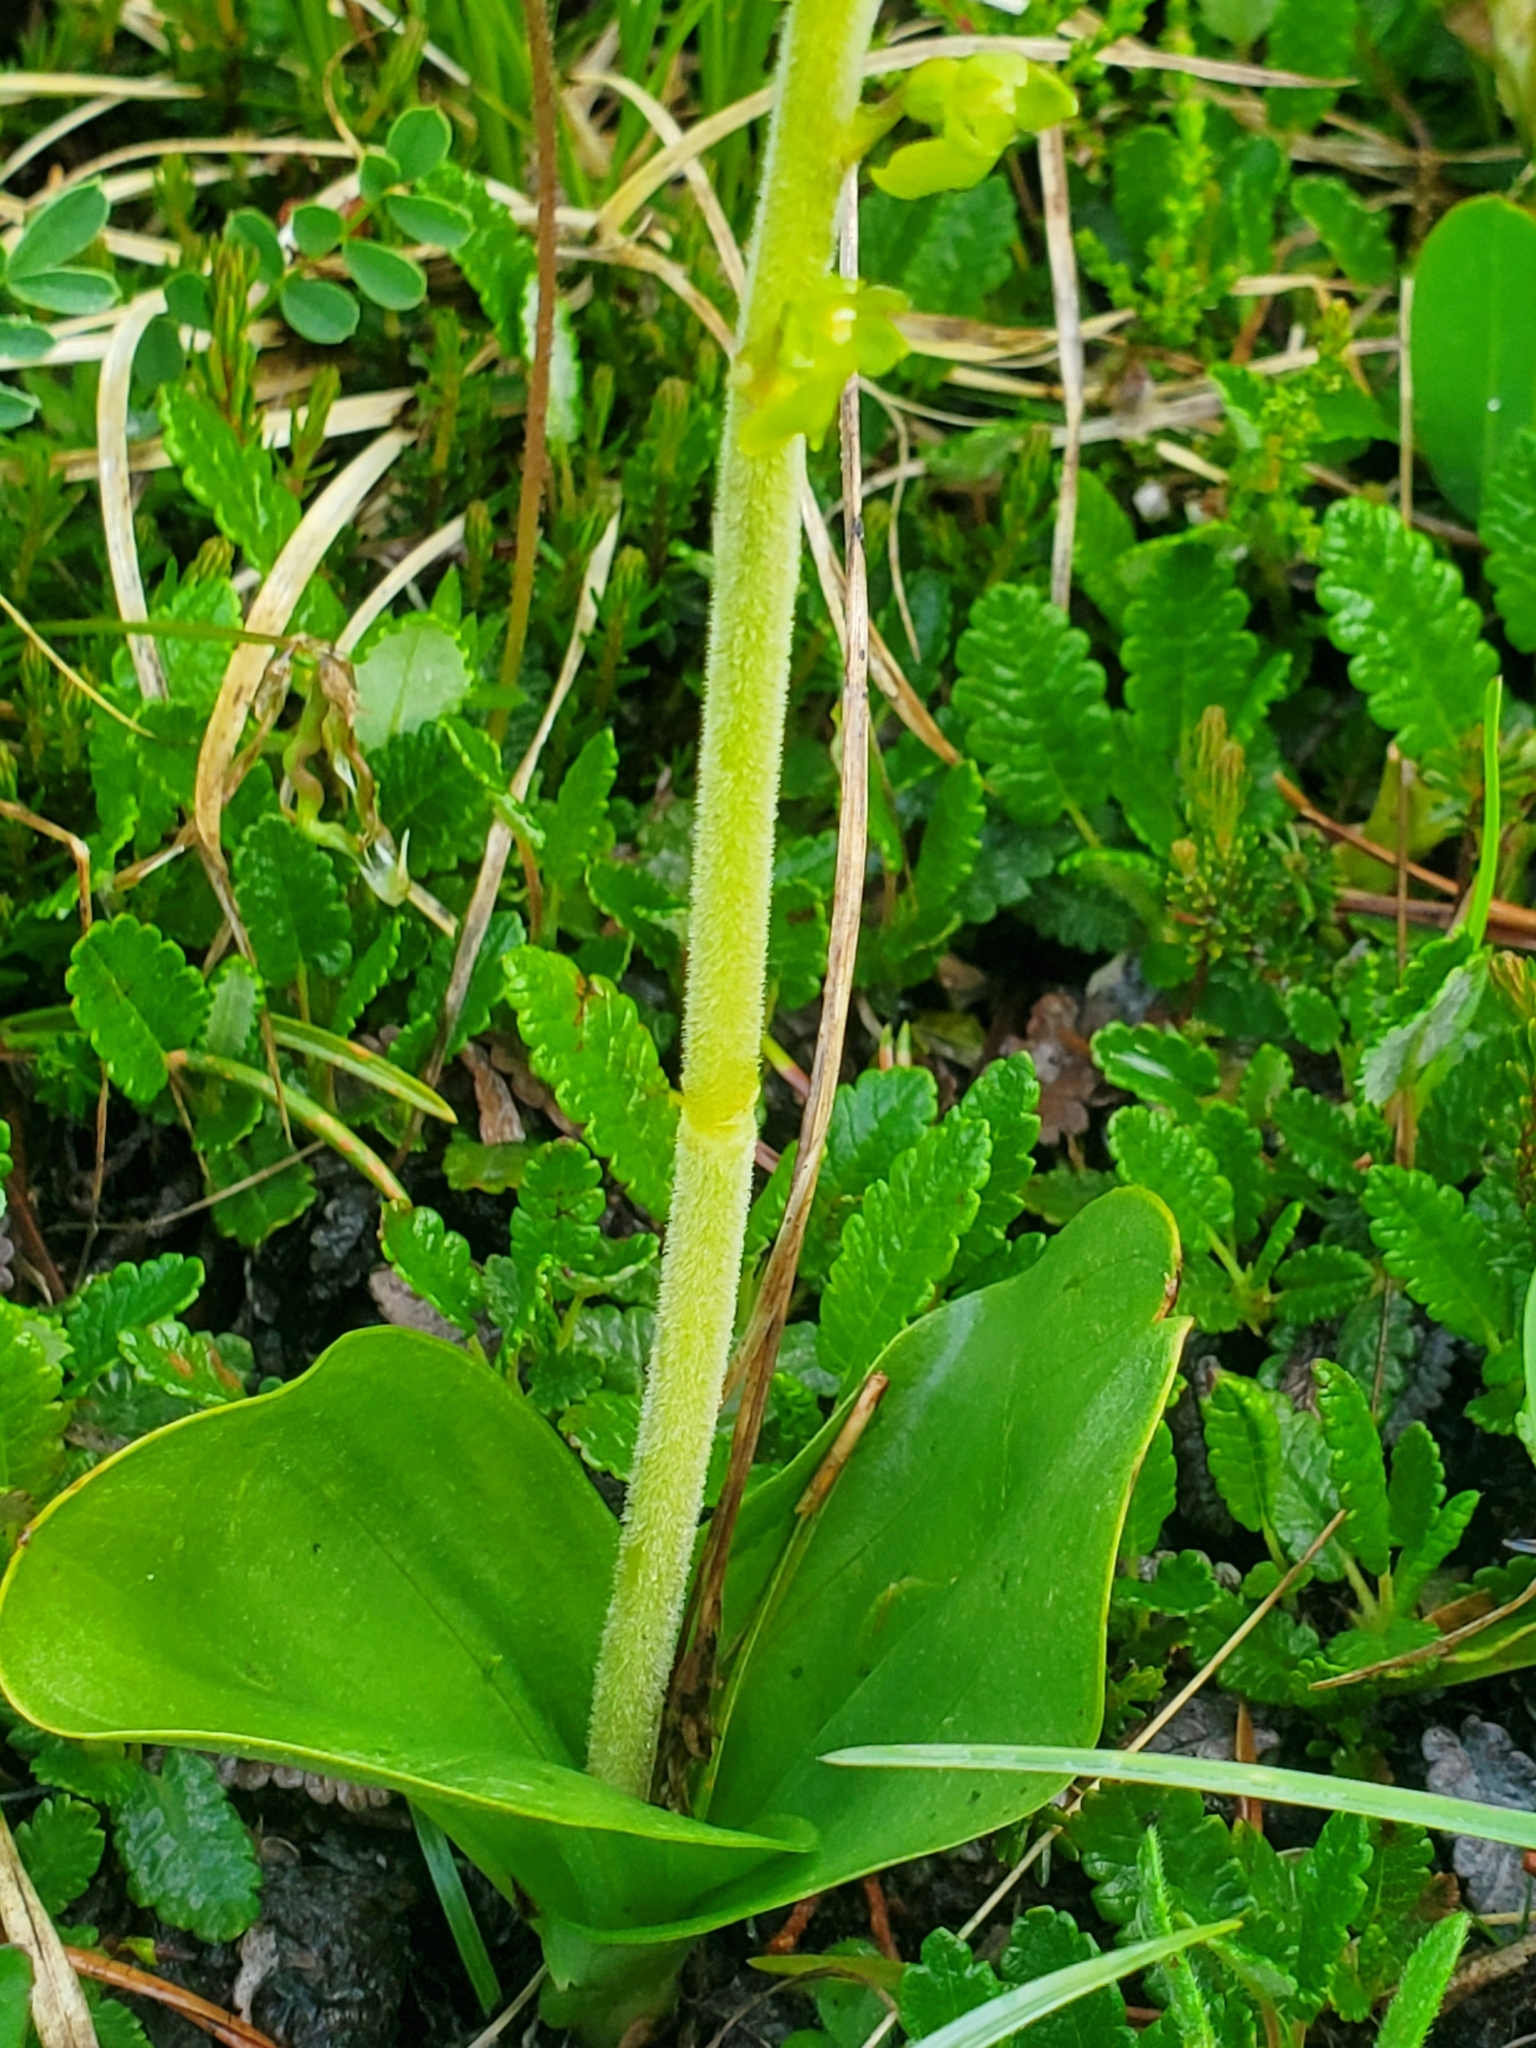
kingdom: Plantae
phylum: Tracheophyta
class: Liliopsida
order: Asparagales
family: Orchidaceae
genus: Neottia
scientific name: Neottia ovata
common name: Common twayblade
